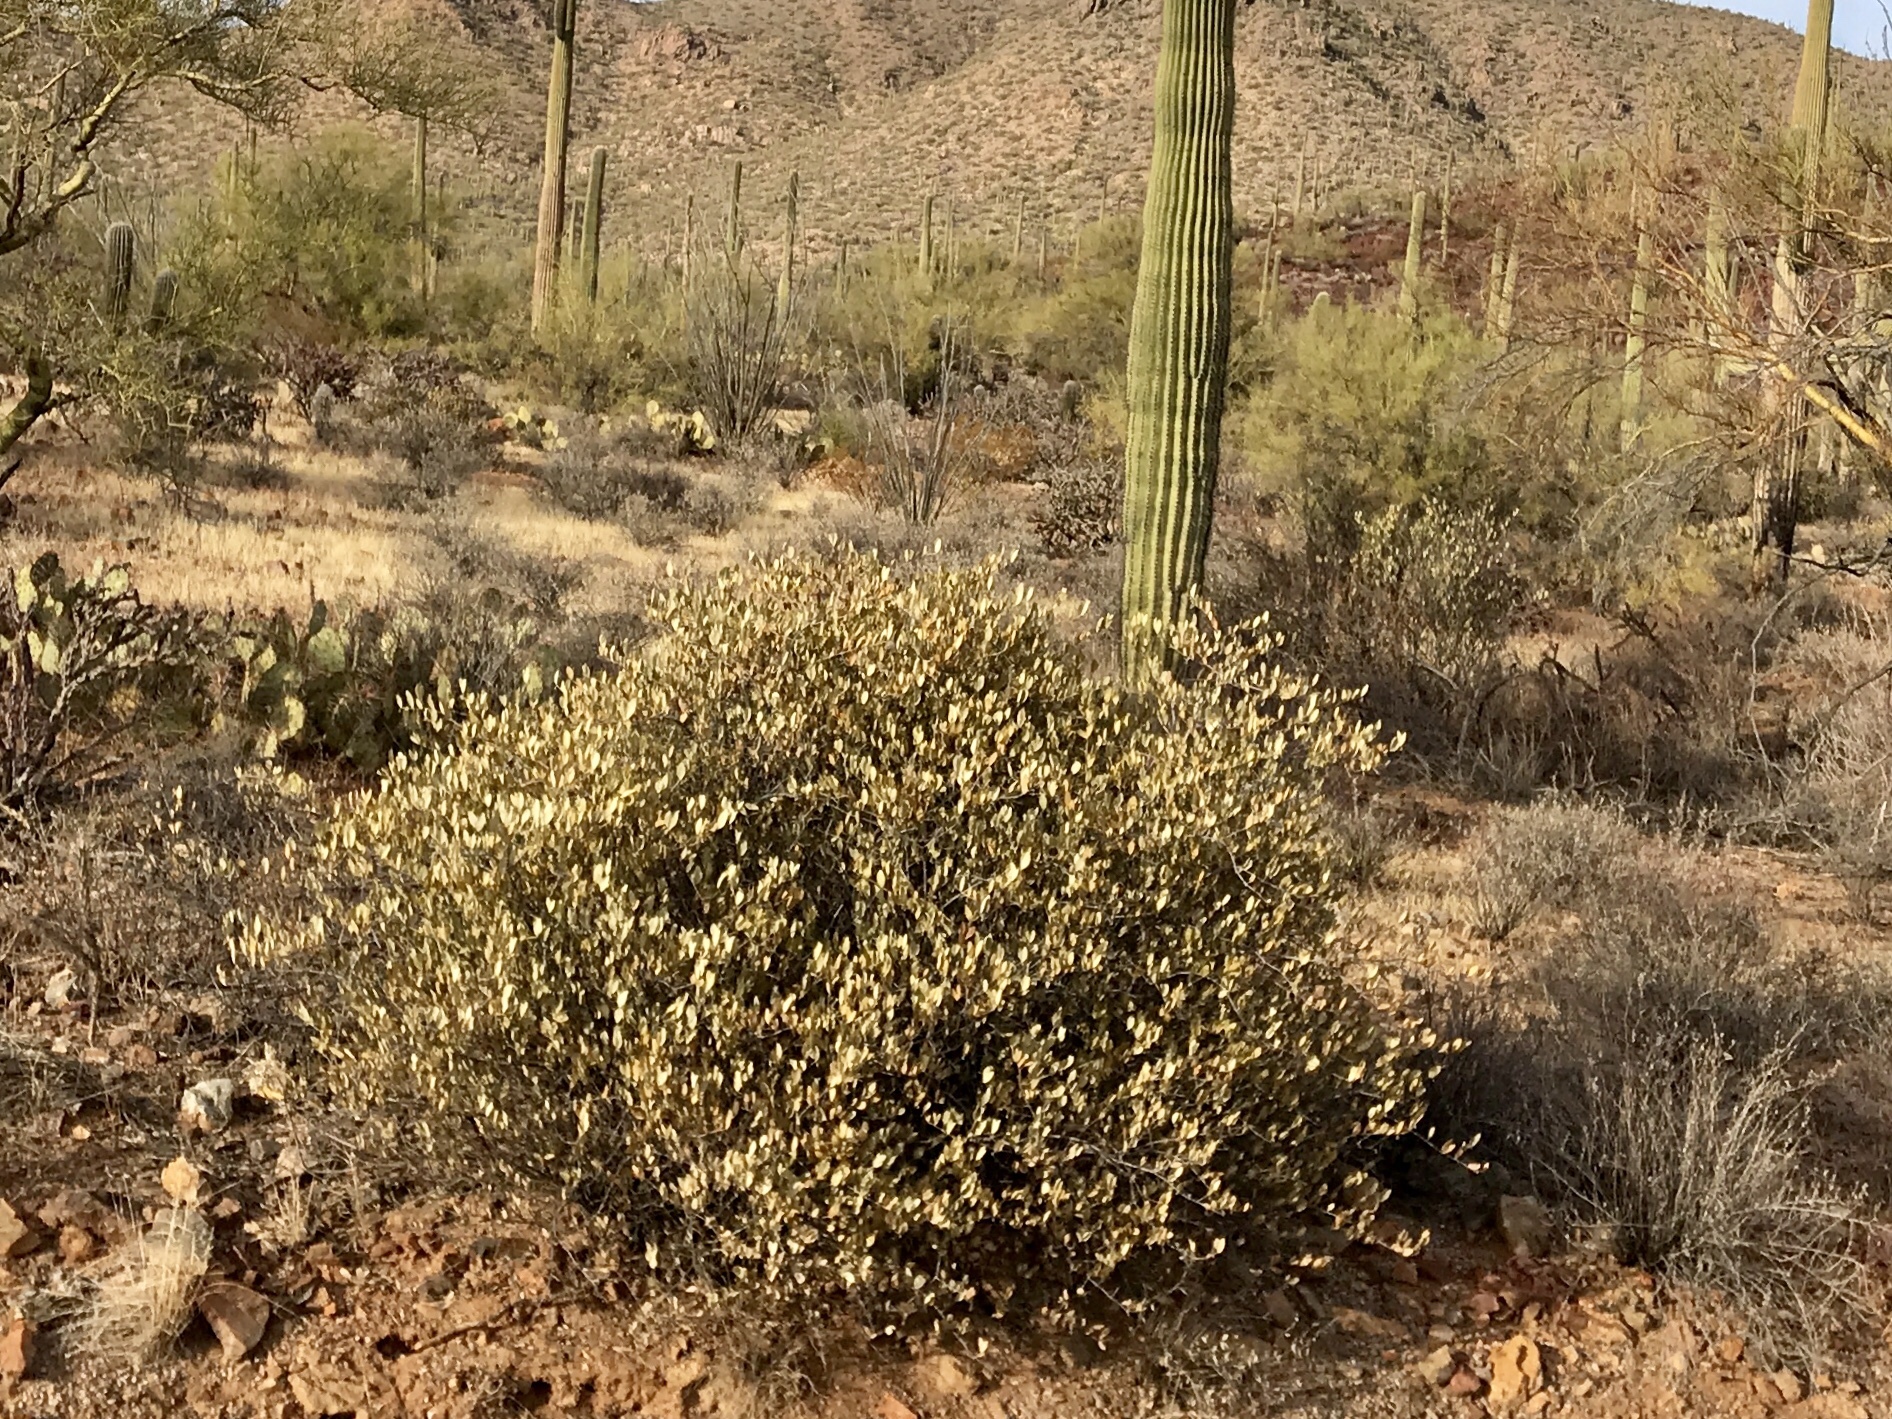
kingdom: Plantae
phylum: Tracheophyta
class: Magnoliopsida
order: Caryophyllales
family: Simmondsiaceae
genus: Simmondsia
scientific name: Simmondsia chinensis
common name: Jojoba
